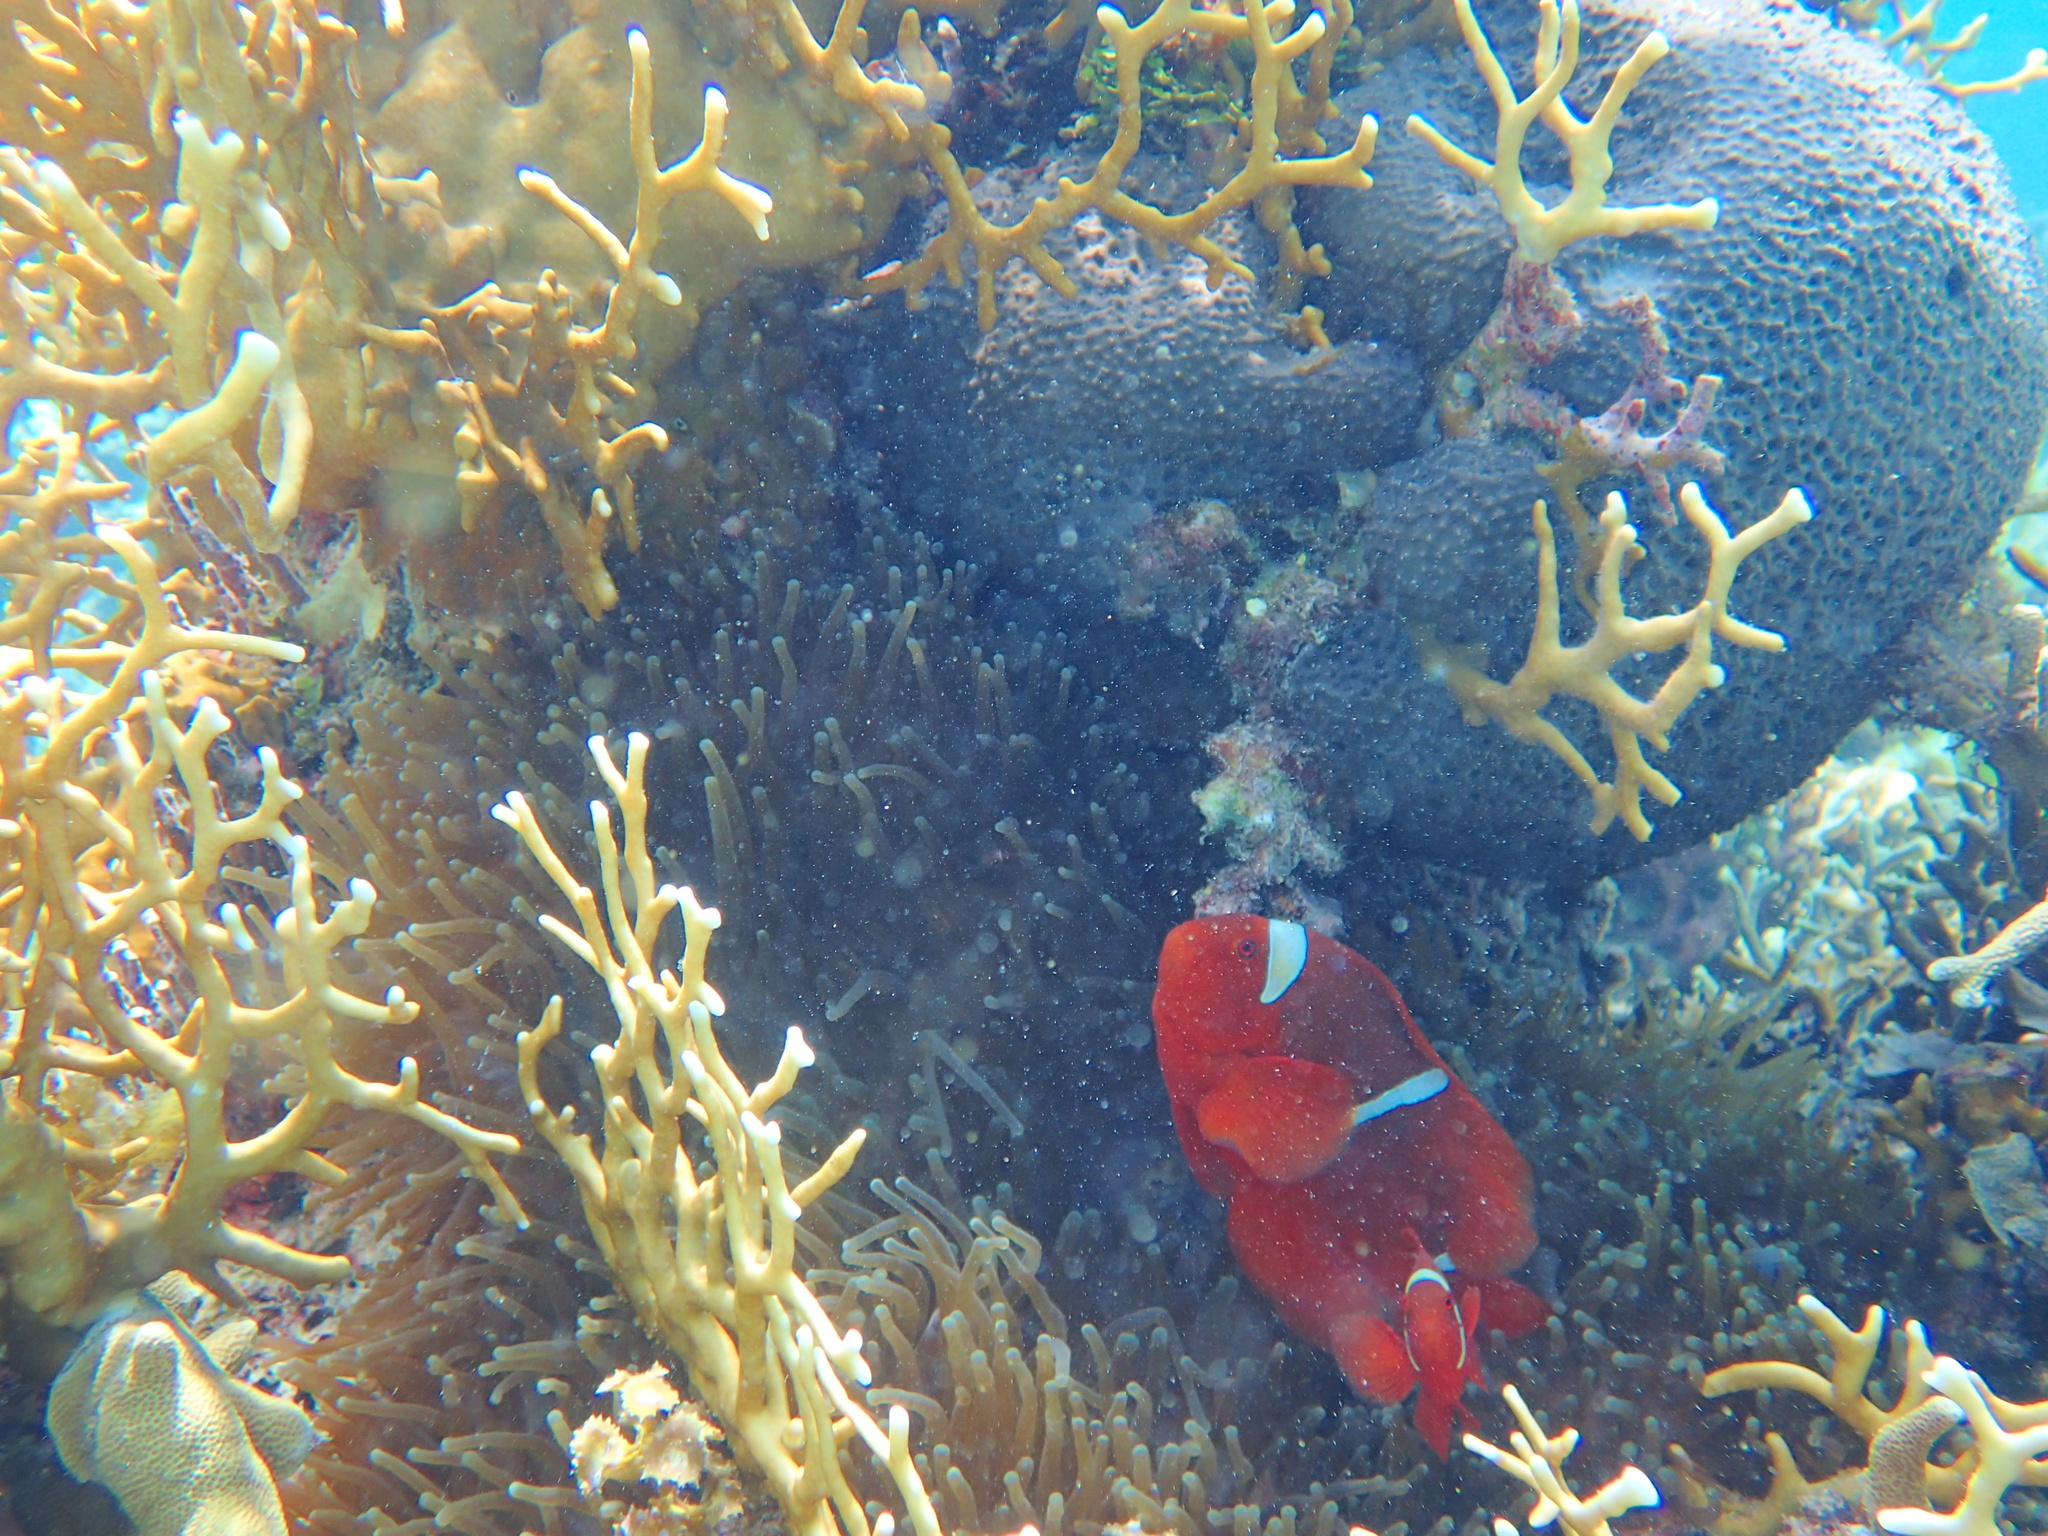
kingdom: Animalia
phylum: Chordata
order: Perciformes
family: Pomacentridae
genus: Premnas
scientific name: Premnas biaculeatus
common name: Spinecheek anemonefish
